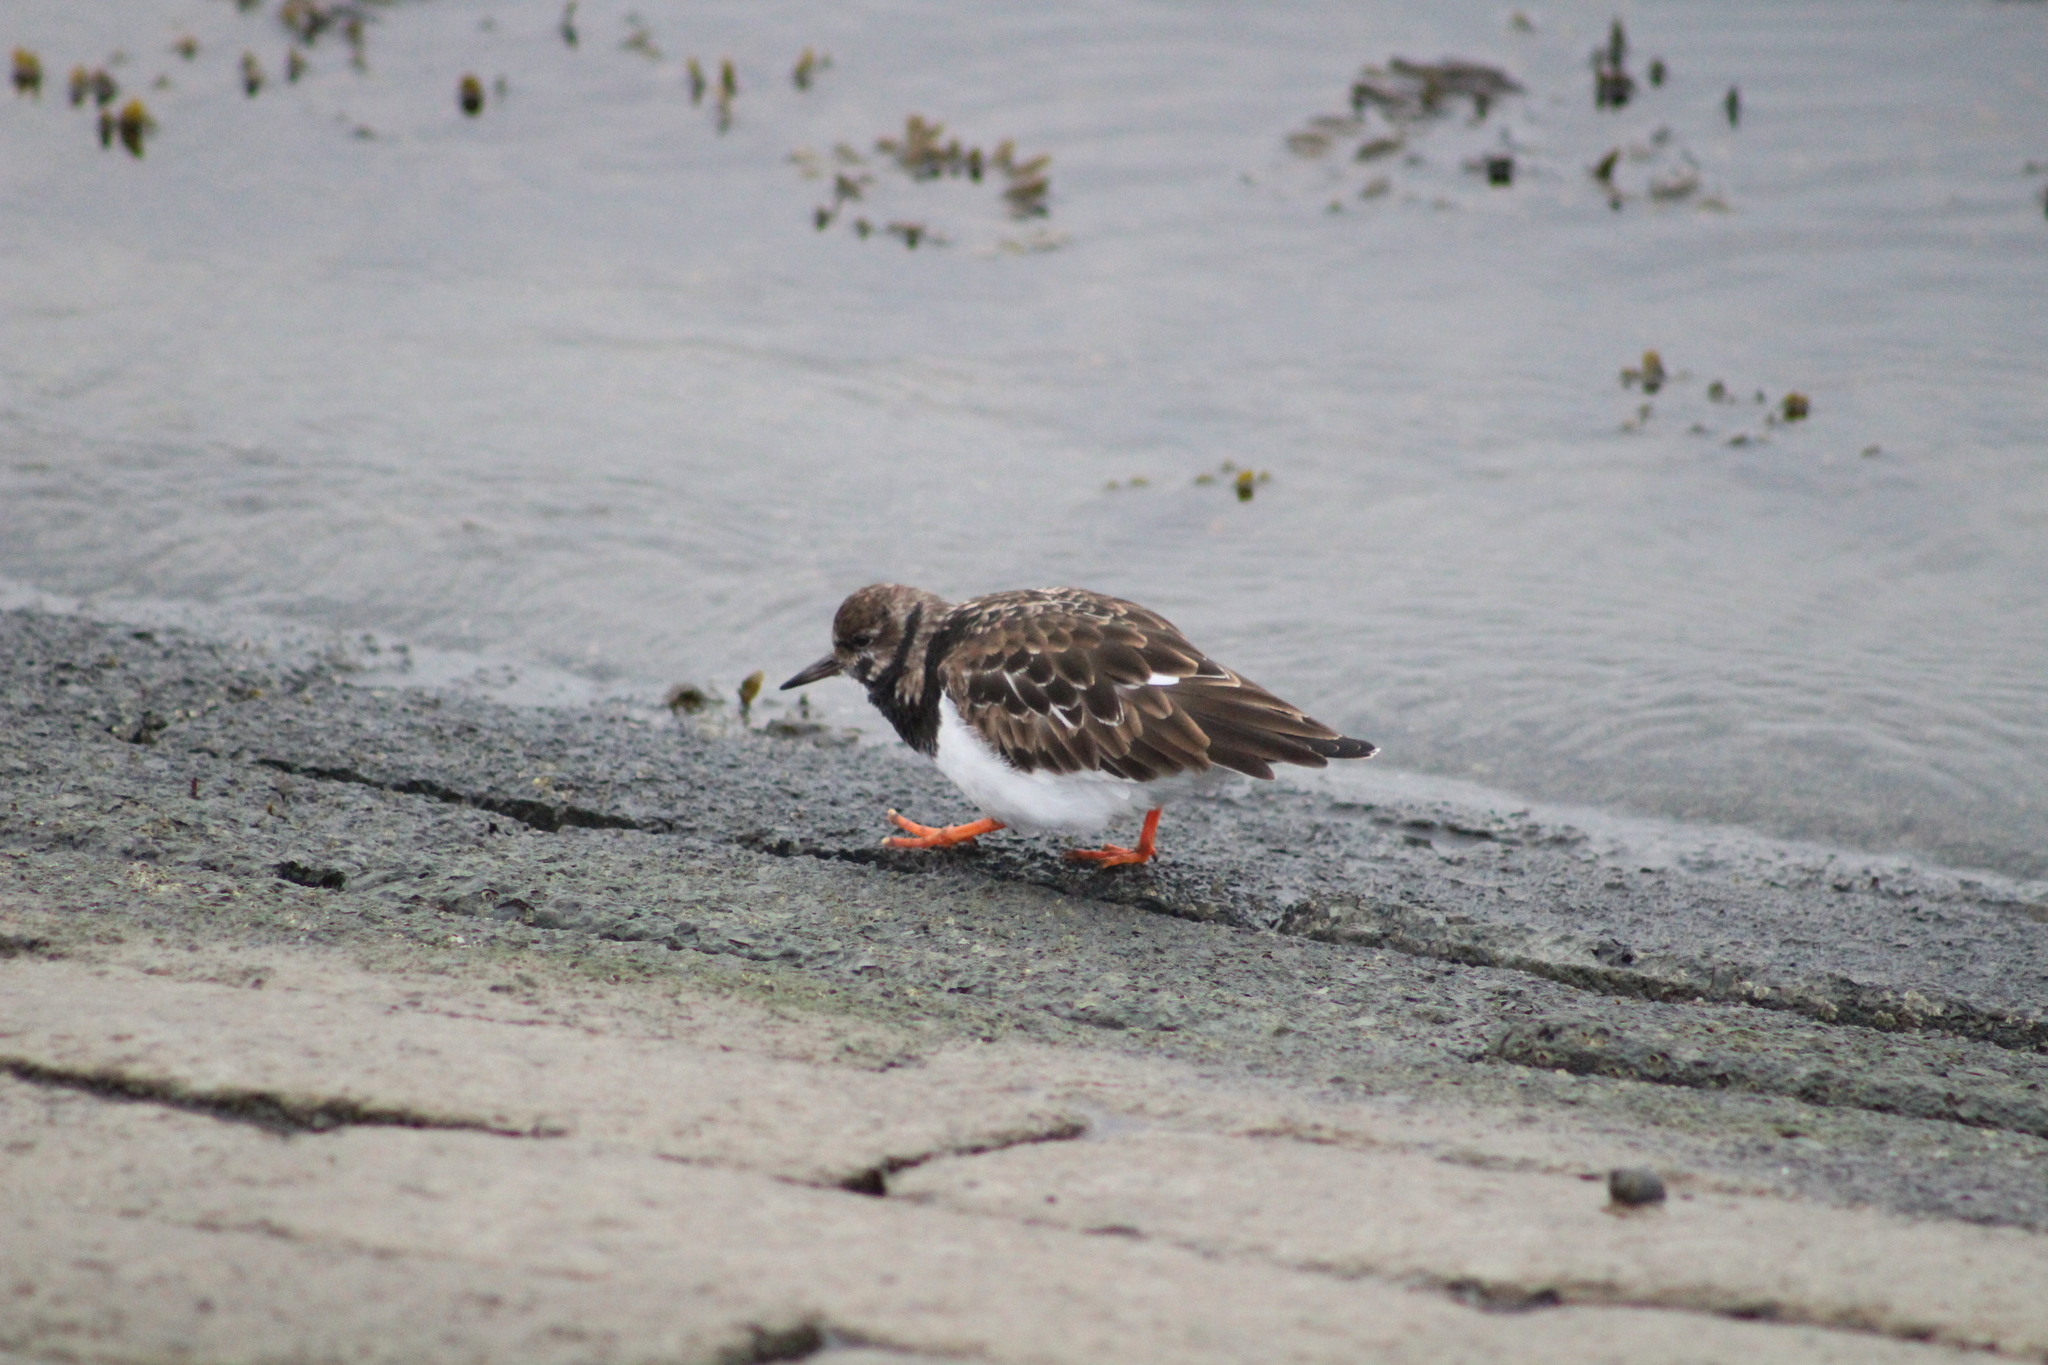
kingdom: Animalia
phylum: Chordata
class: Aves
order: Charadriiformes
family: Scolopacidae
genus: Arenaria
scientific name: Arenaria interpres
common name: Ruddy turnstone
